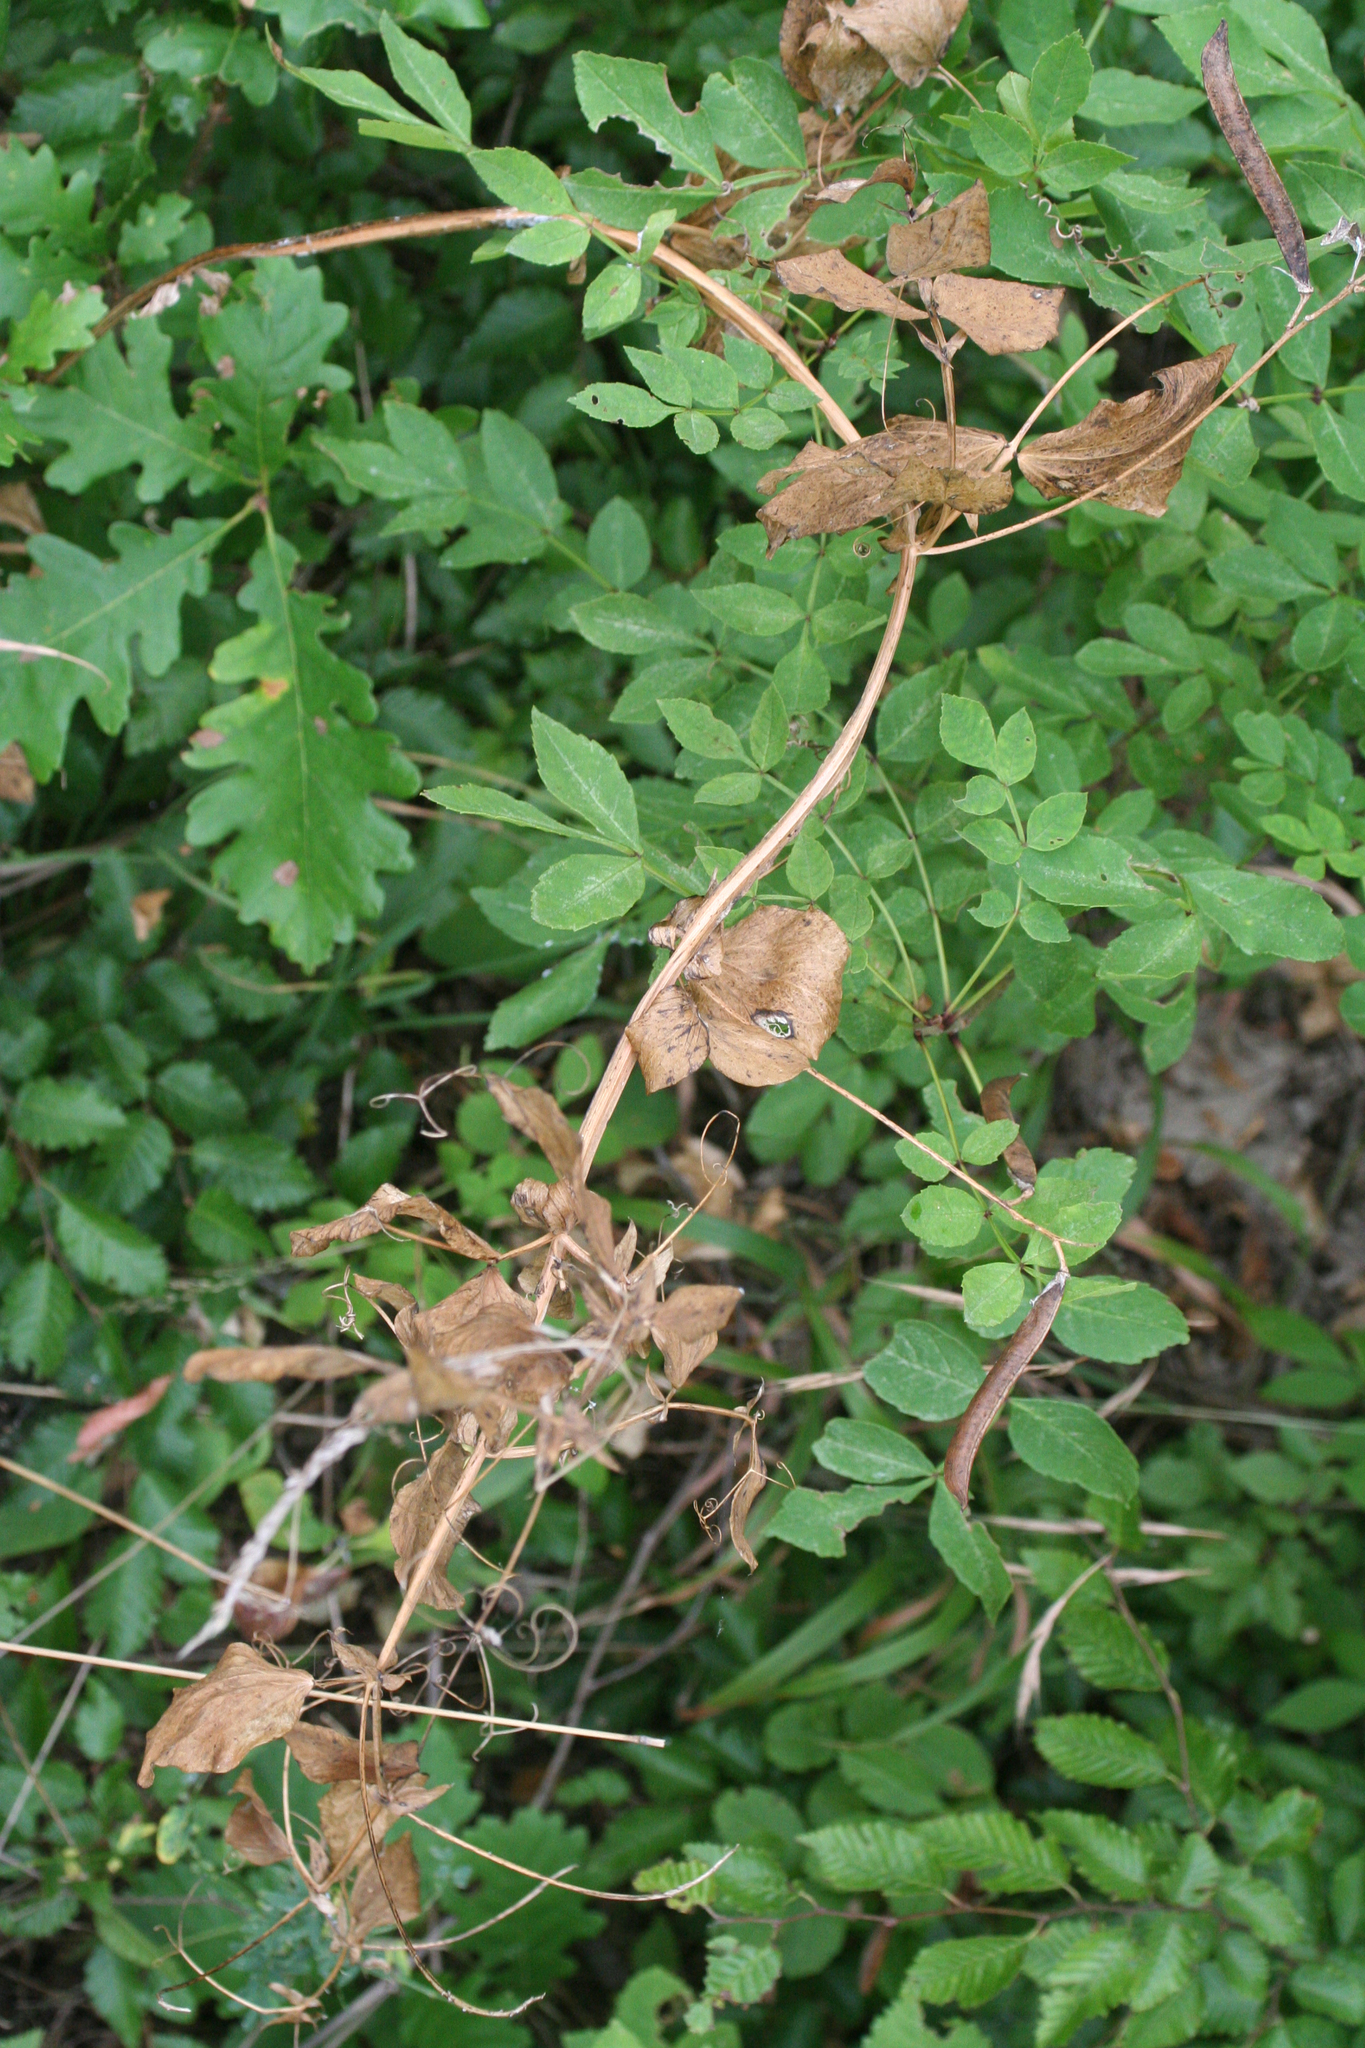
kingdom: Plantae
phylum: Tracheophyta
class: Magnoliopsida
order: Fagales
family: Betulaceae
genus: Carpinus
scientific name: Carpinus orientalis
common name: Eastern hornbeam
